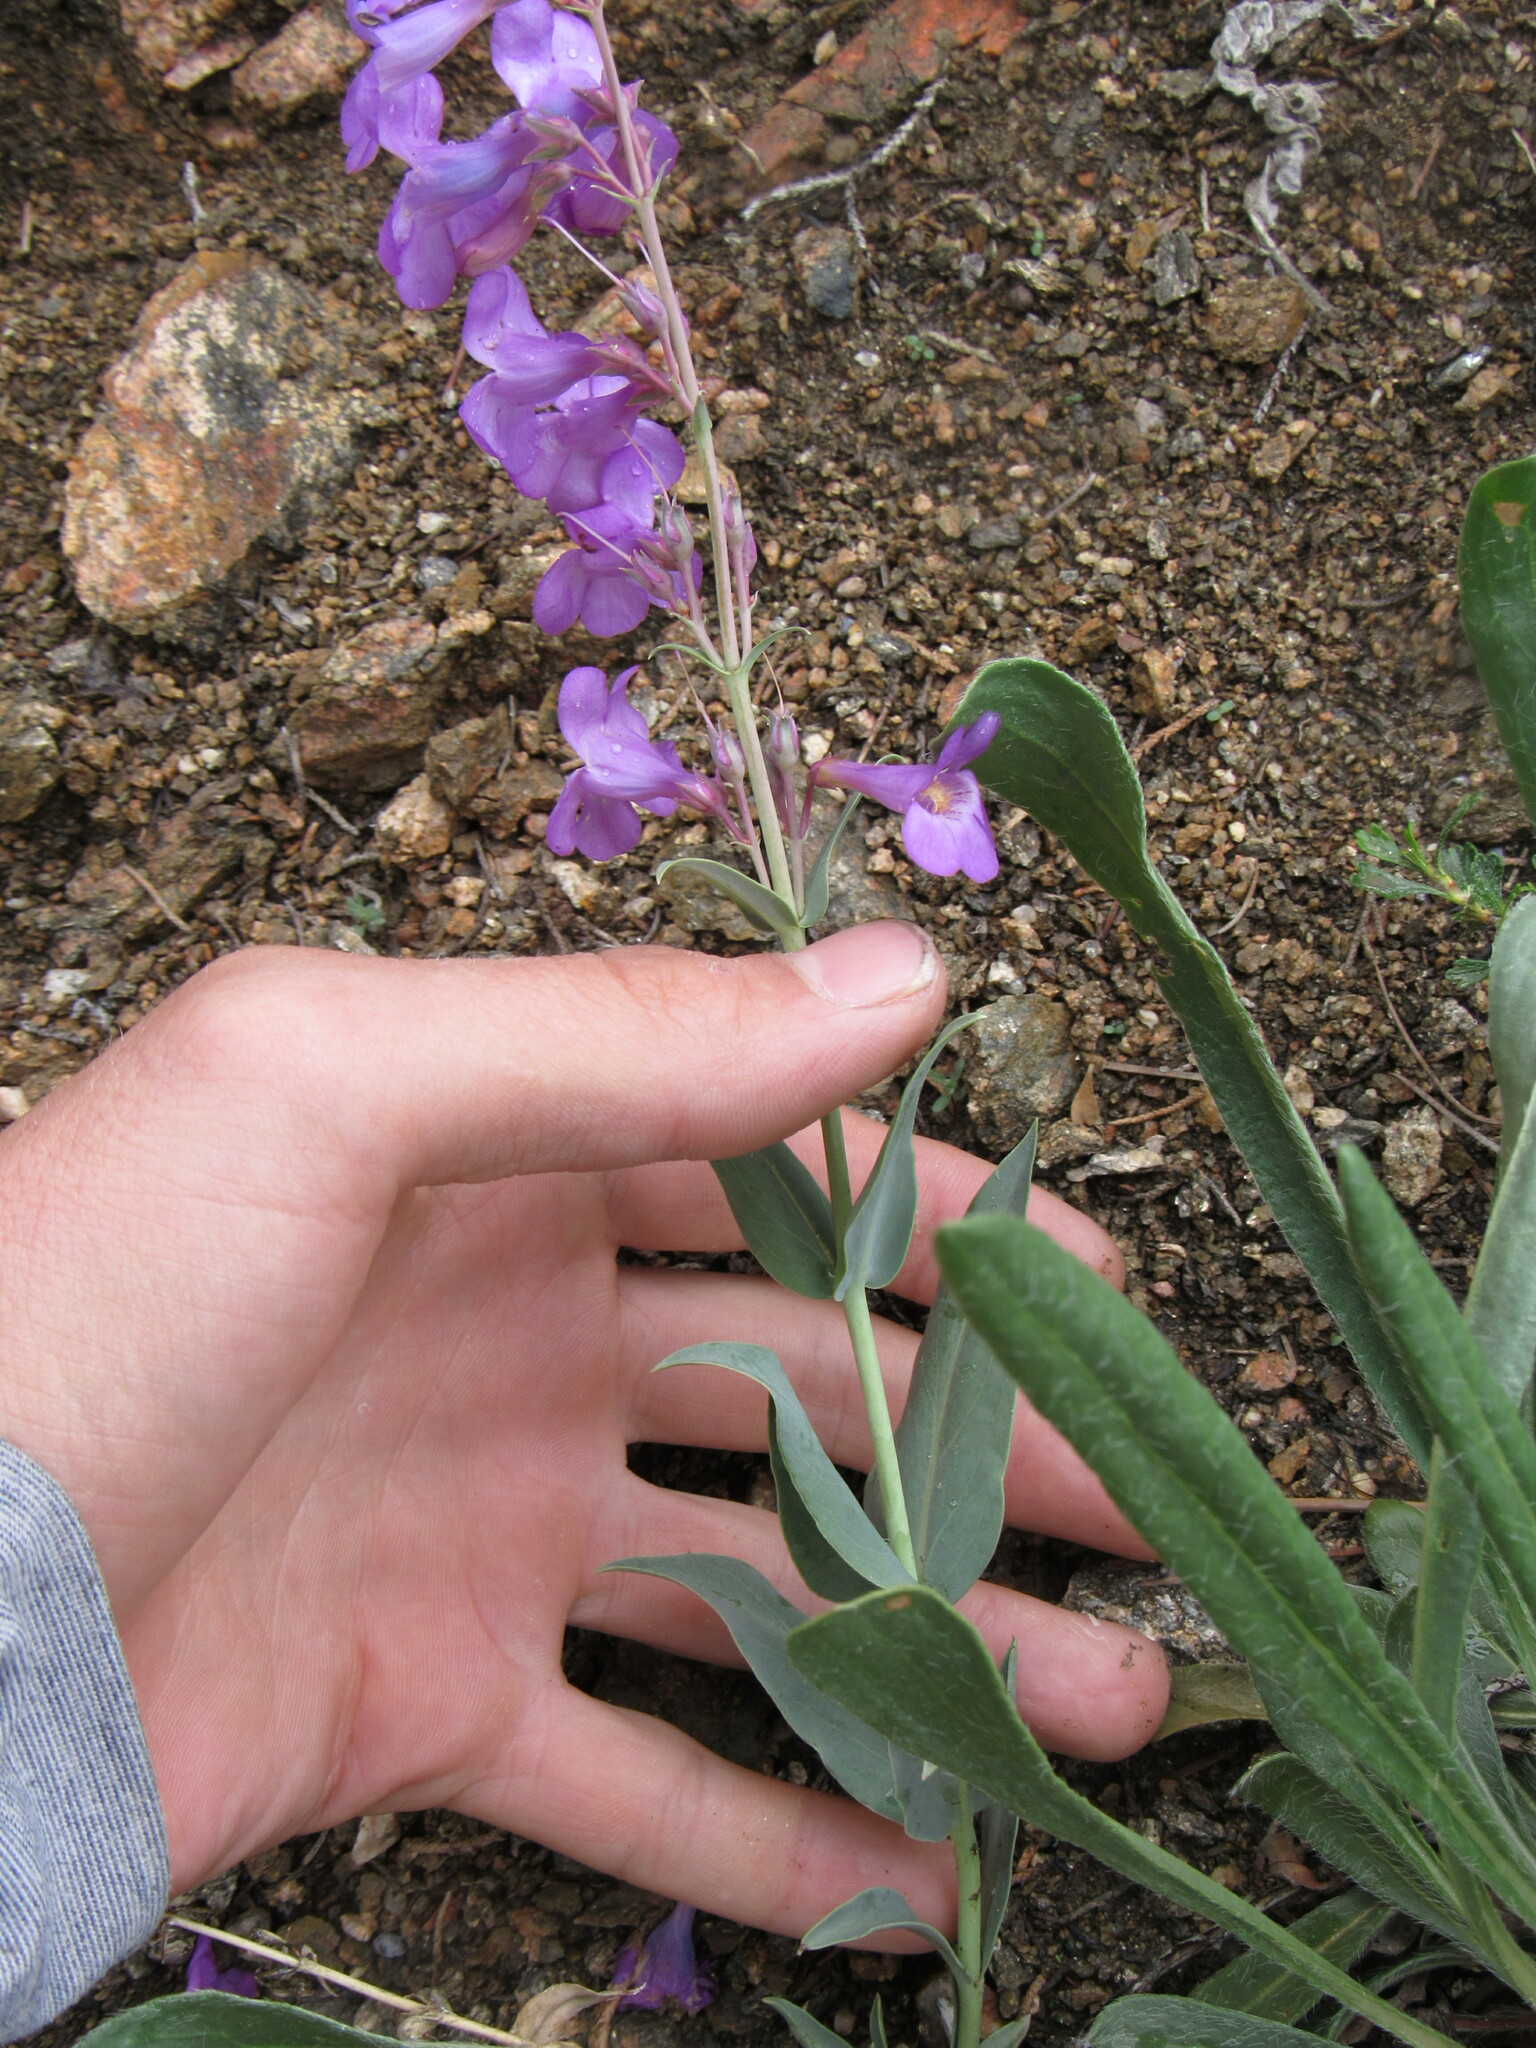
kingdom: Plantae
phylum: Tracheophyta
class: Magnoliopsida
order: Lamiales
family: Plantaginaceae
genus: Penstemon
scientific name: Penstemon secundiflorus
